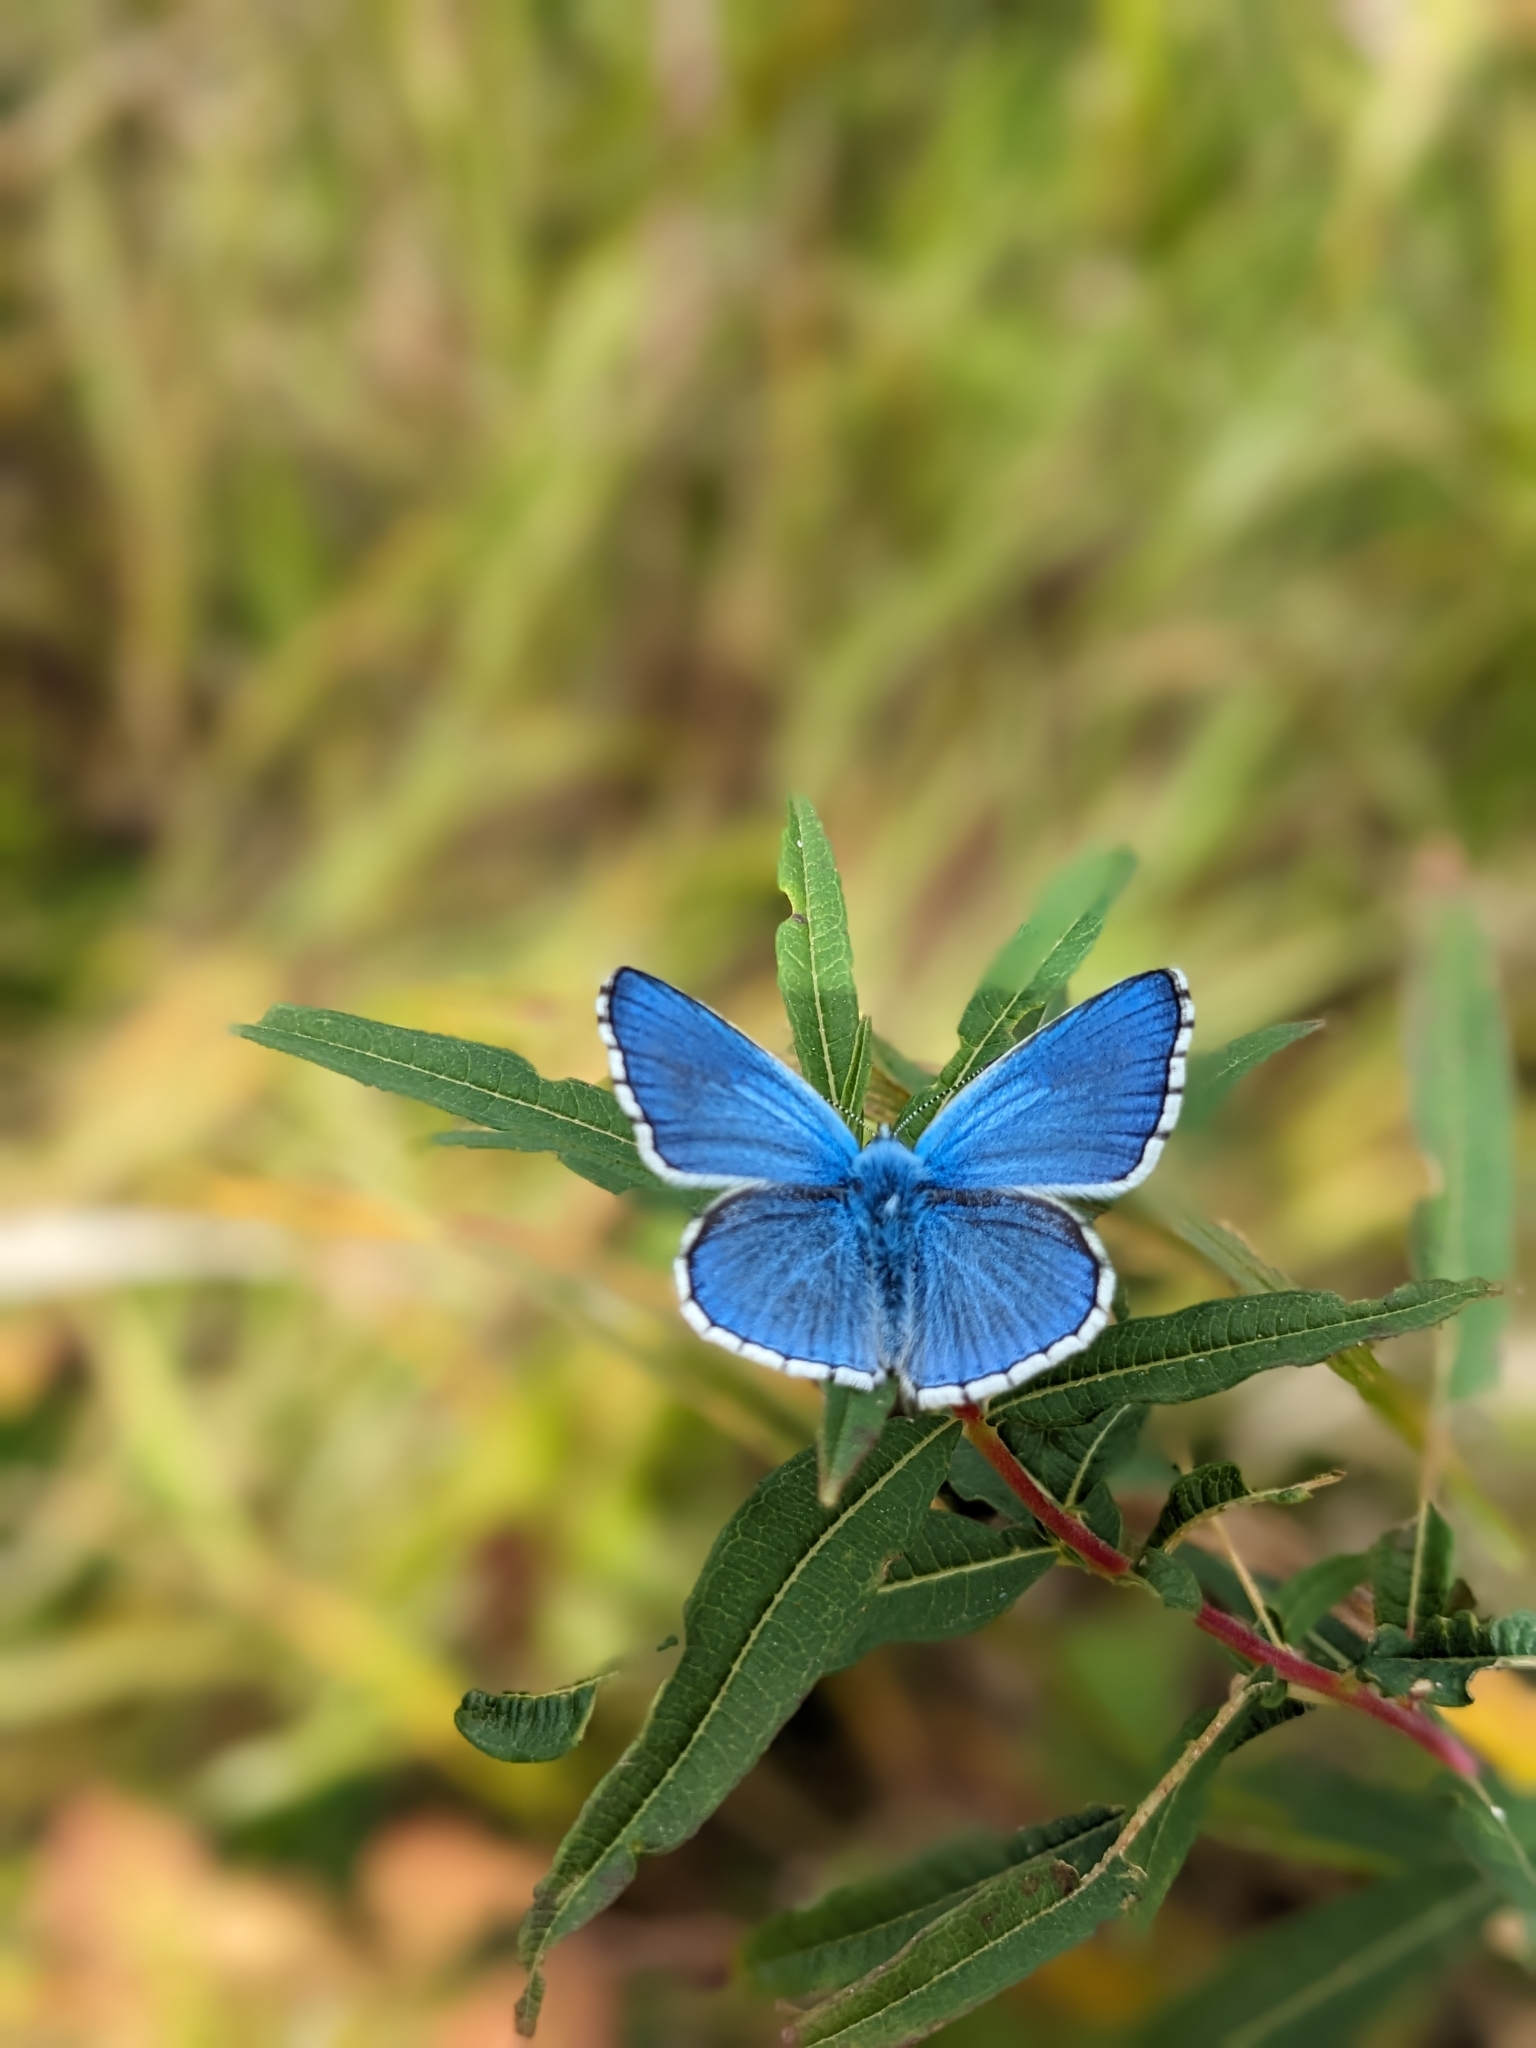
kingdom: Animalia
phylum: Arthropoda
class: Insecta
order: Lepidoptera
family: Lycaenidae
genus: Lysandra
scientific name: Lysandra bellargus
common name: Adonis blue
